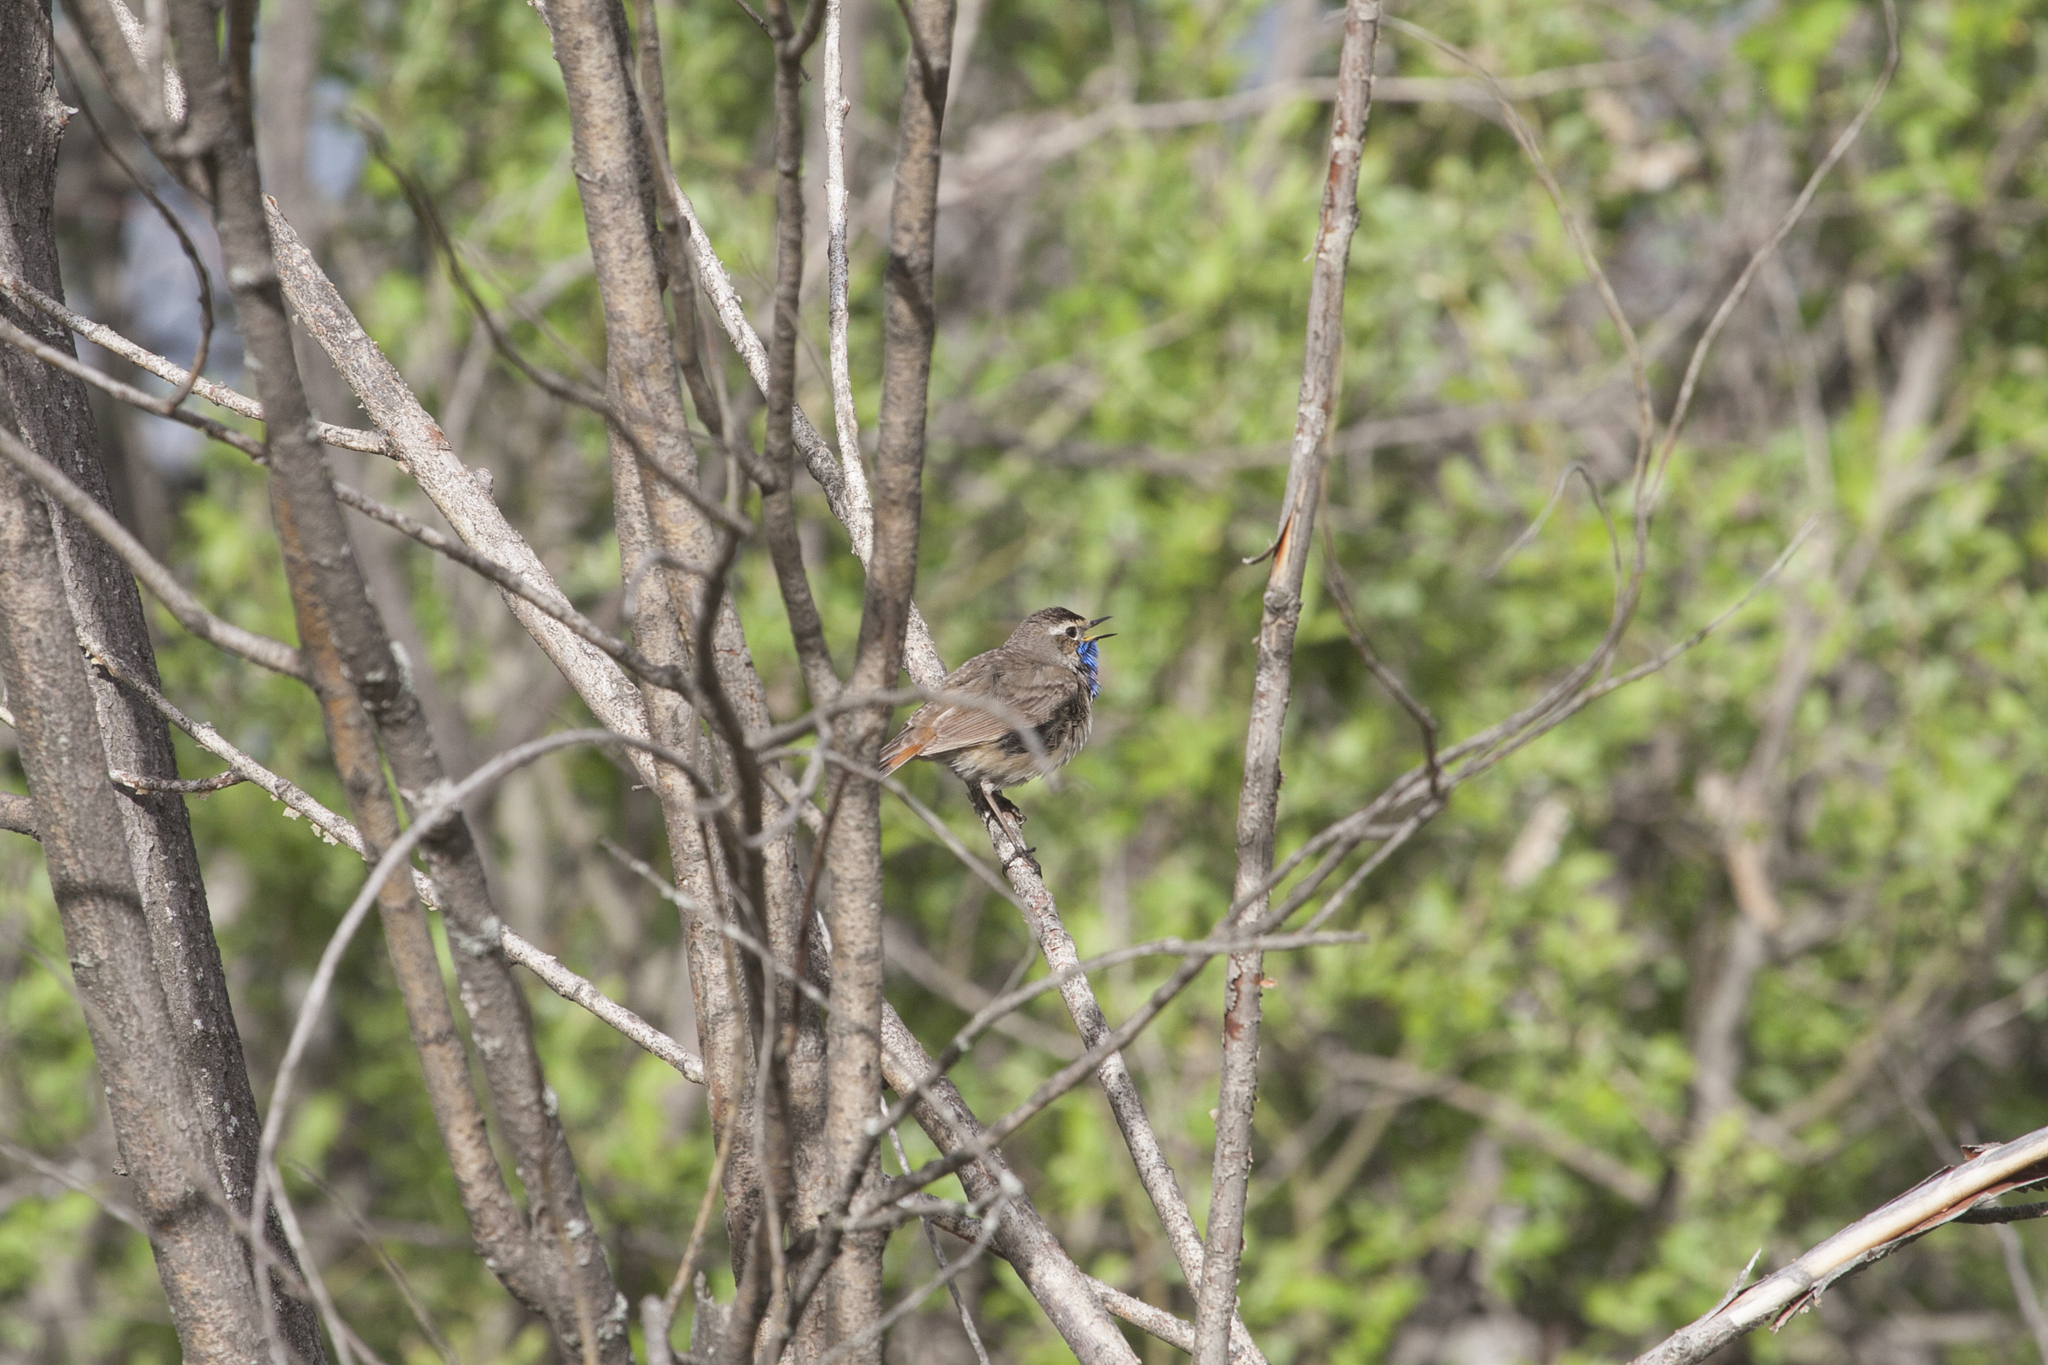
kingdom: Animalia
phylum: Chordata
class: Aves
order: Passeriformes
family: Muscicapidae
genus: Luscinia
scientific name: Luscinia svecica
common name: Bluethroat
